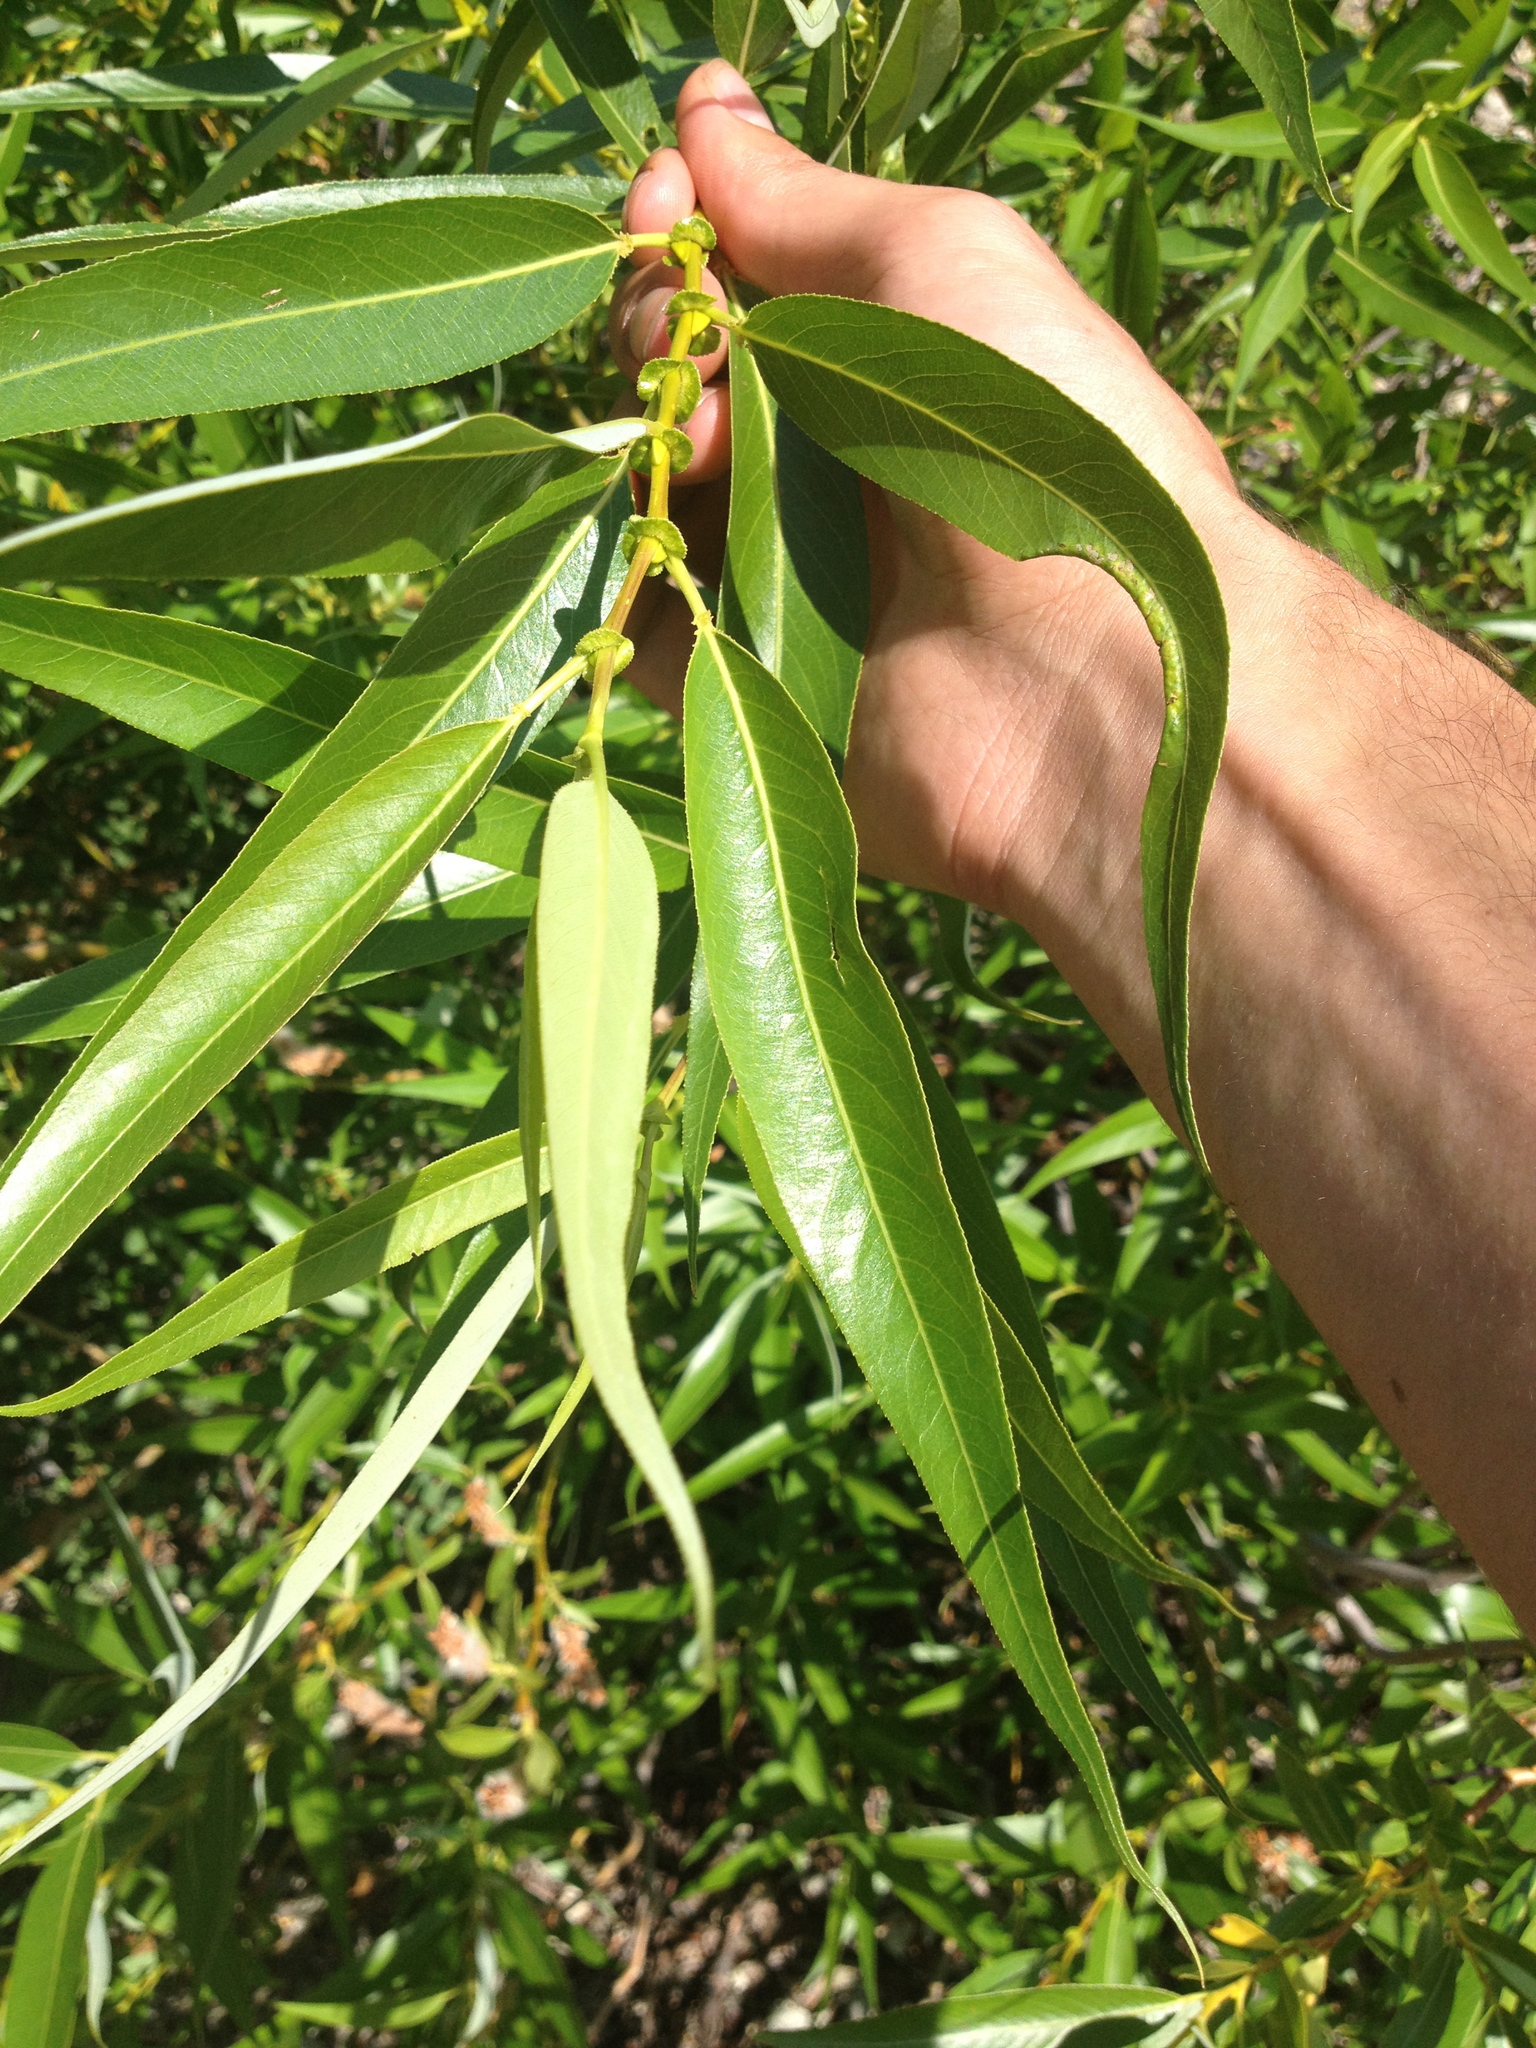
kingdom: Plantae
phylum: Tracheophyta
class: Magnoliopsida
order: Malpighiales
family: Salicaceae
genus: Salix
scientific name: Salix lucida
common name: Shining willow
